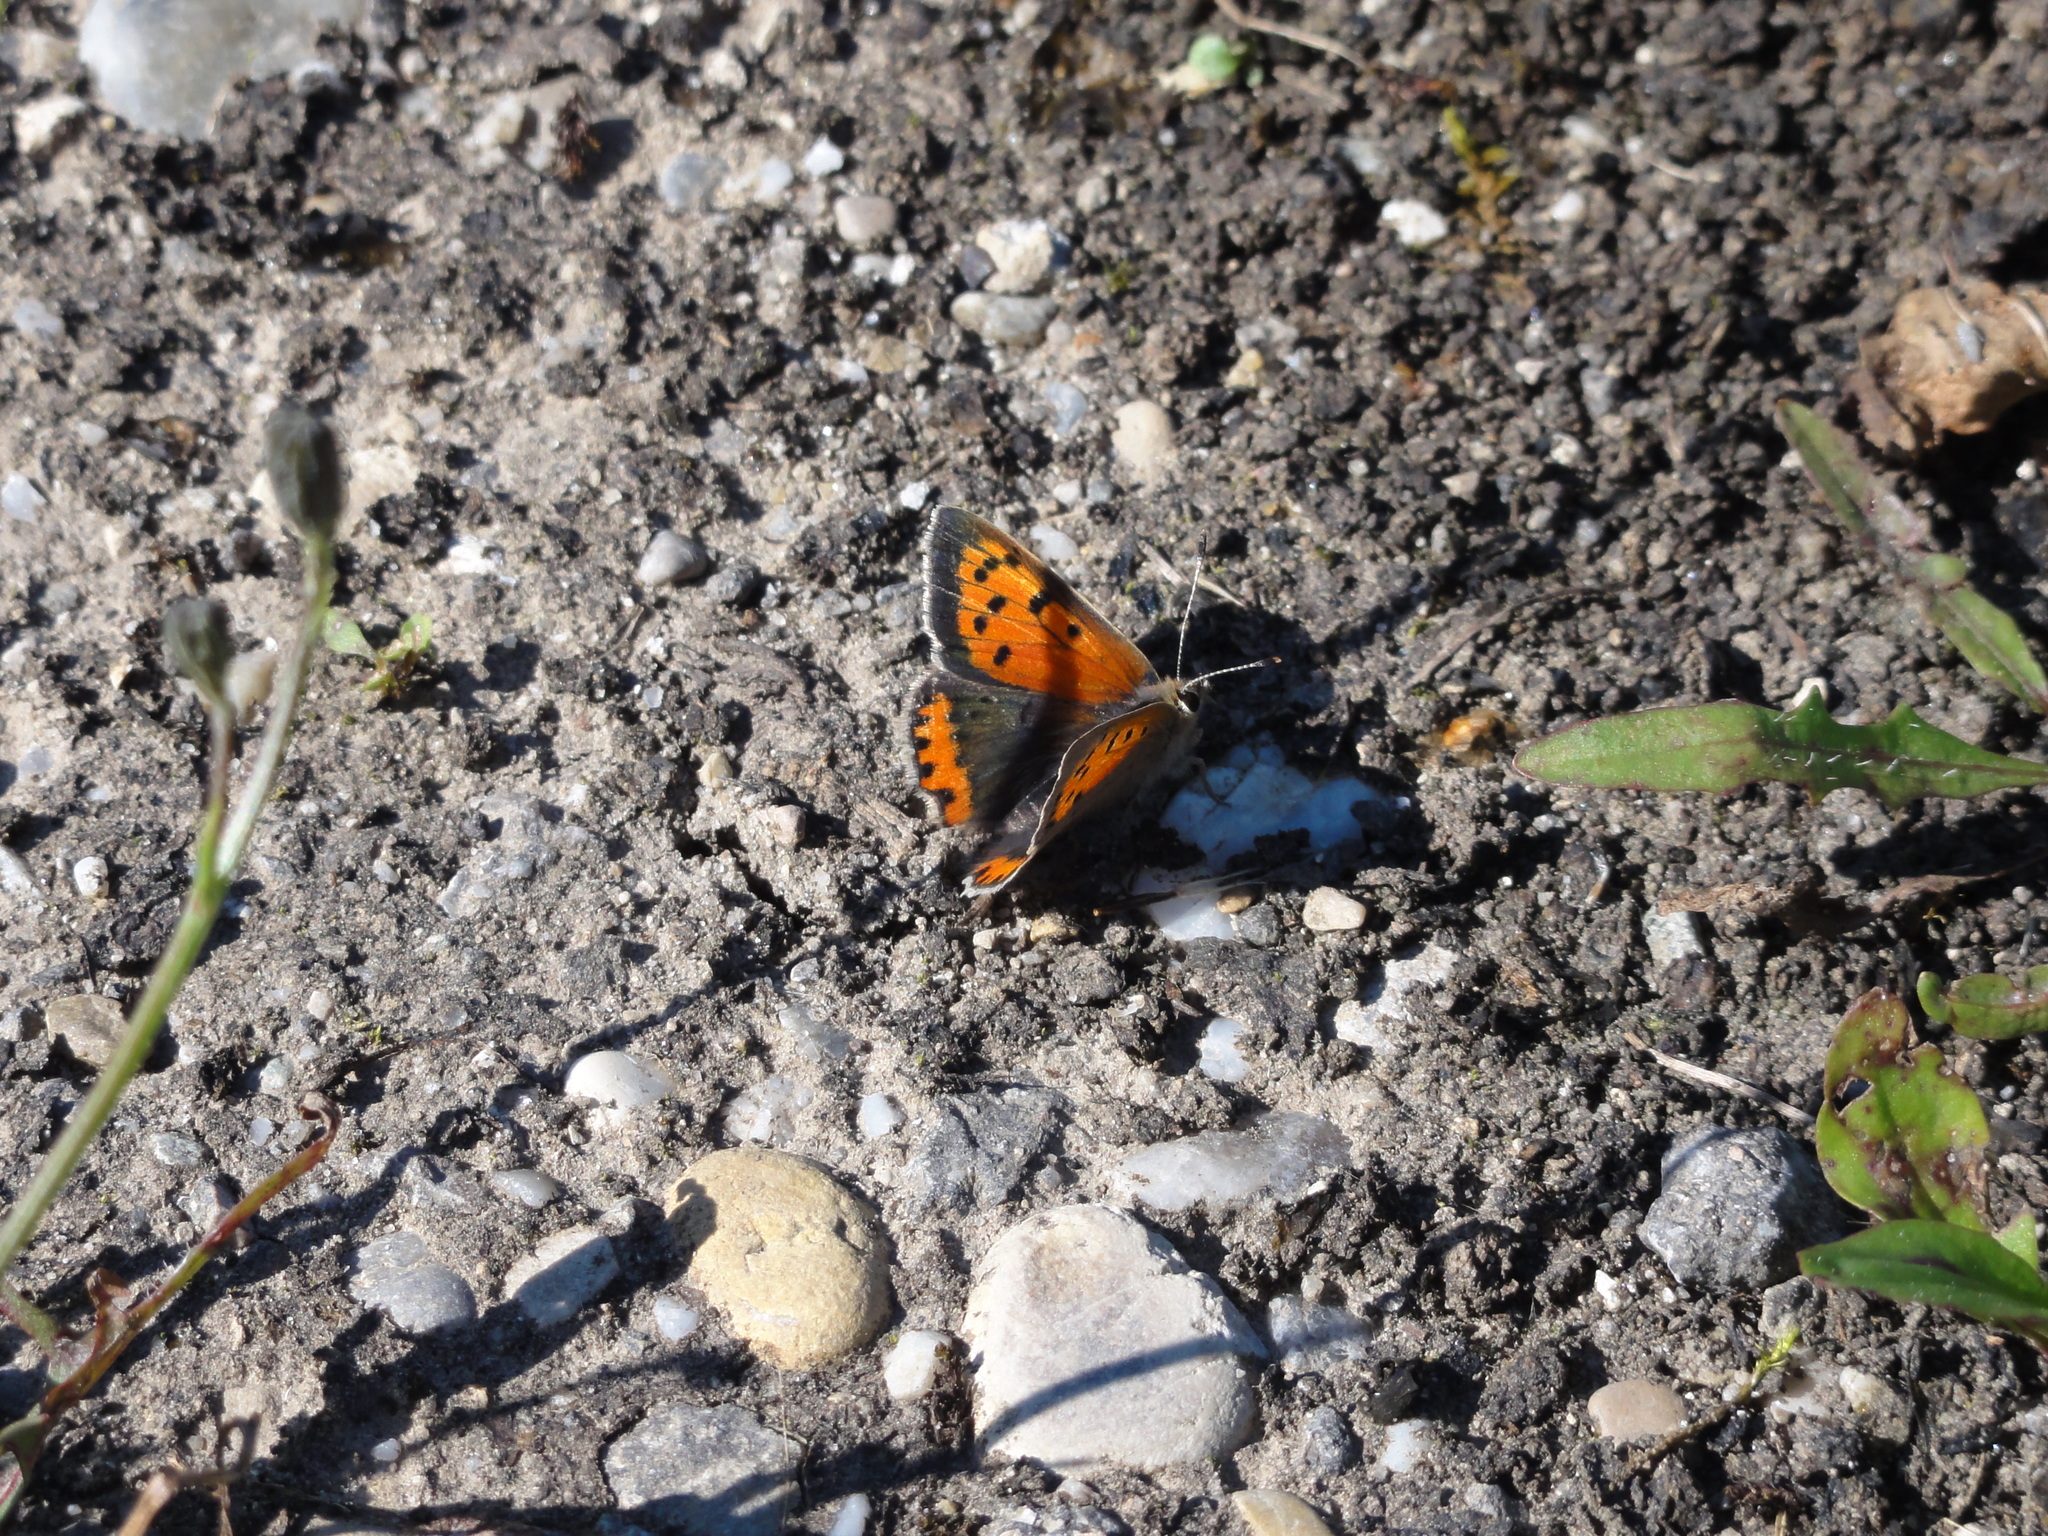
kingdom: Animalia
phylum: Arthropoda
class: Insecta
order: Lepidoptera
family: Lycaenidae
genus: Lycaena
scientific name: Lycaena phlaeas
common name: Small copper
